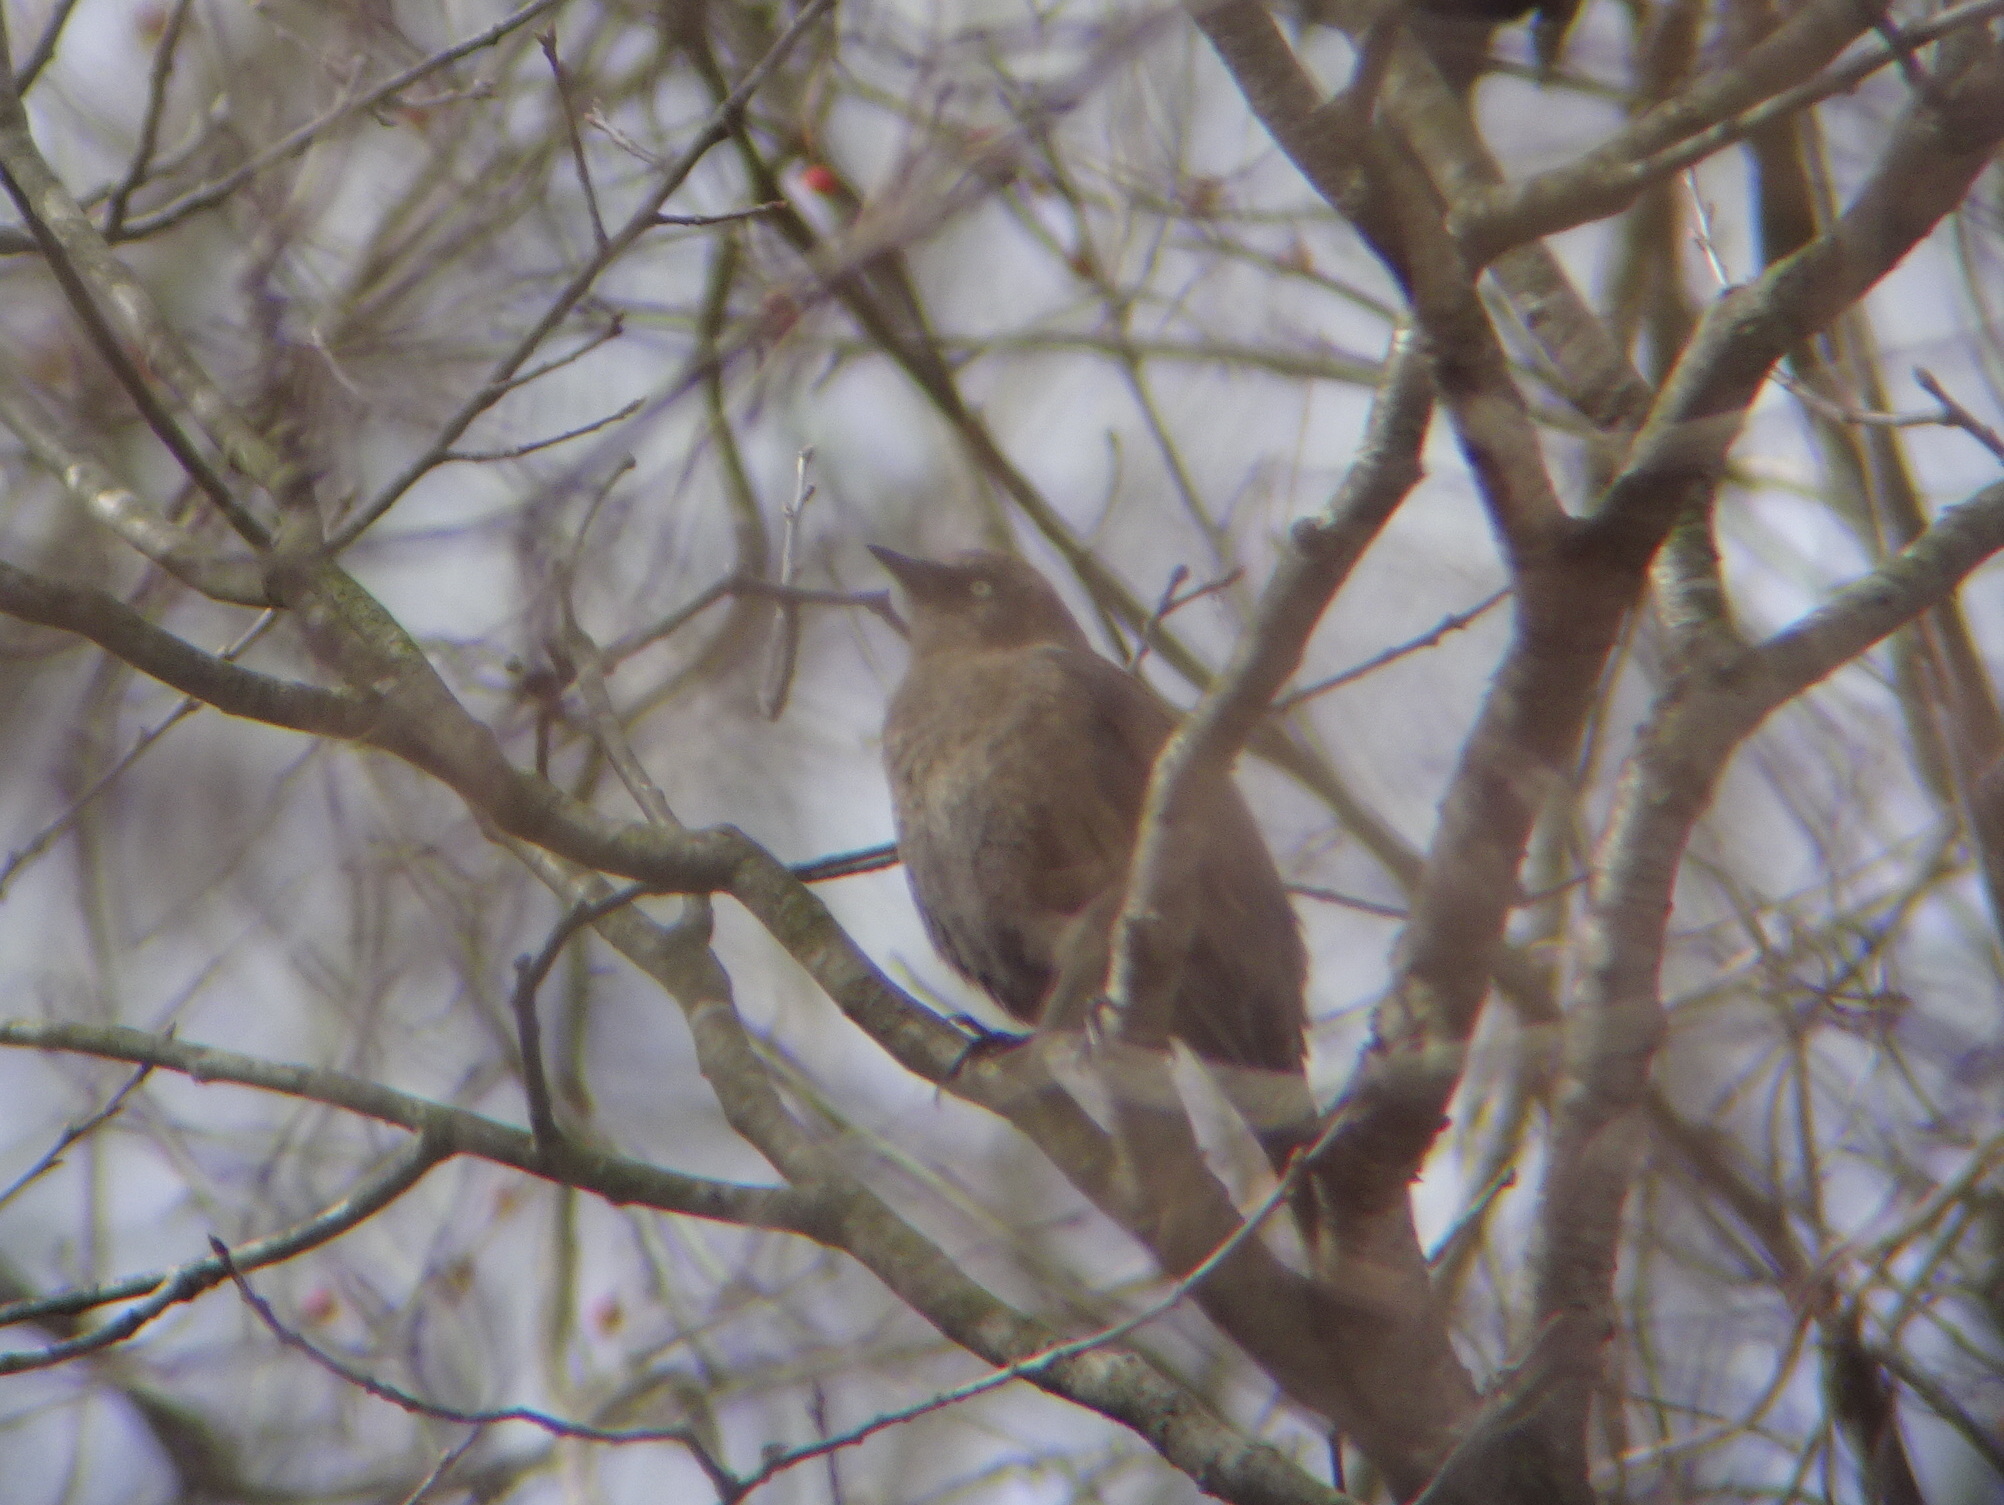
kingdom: Animalia
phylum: Chordata
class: Aves
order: Passeriformes
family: Icteridae
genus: Euphagus
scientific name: Euphagus carolinus
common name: Rusty blackbird
